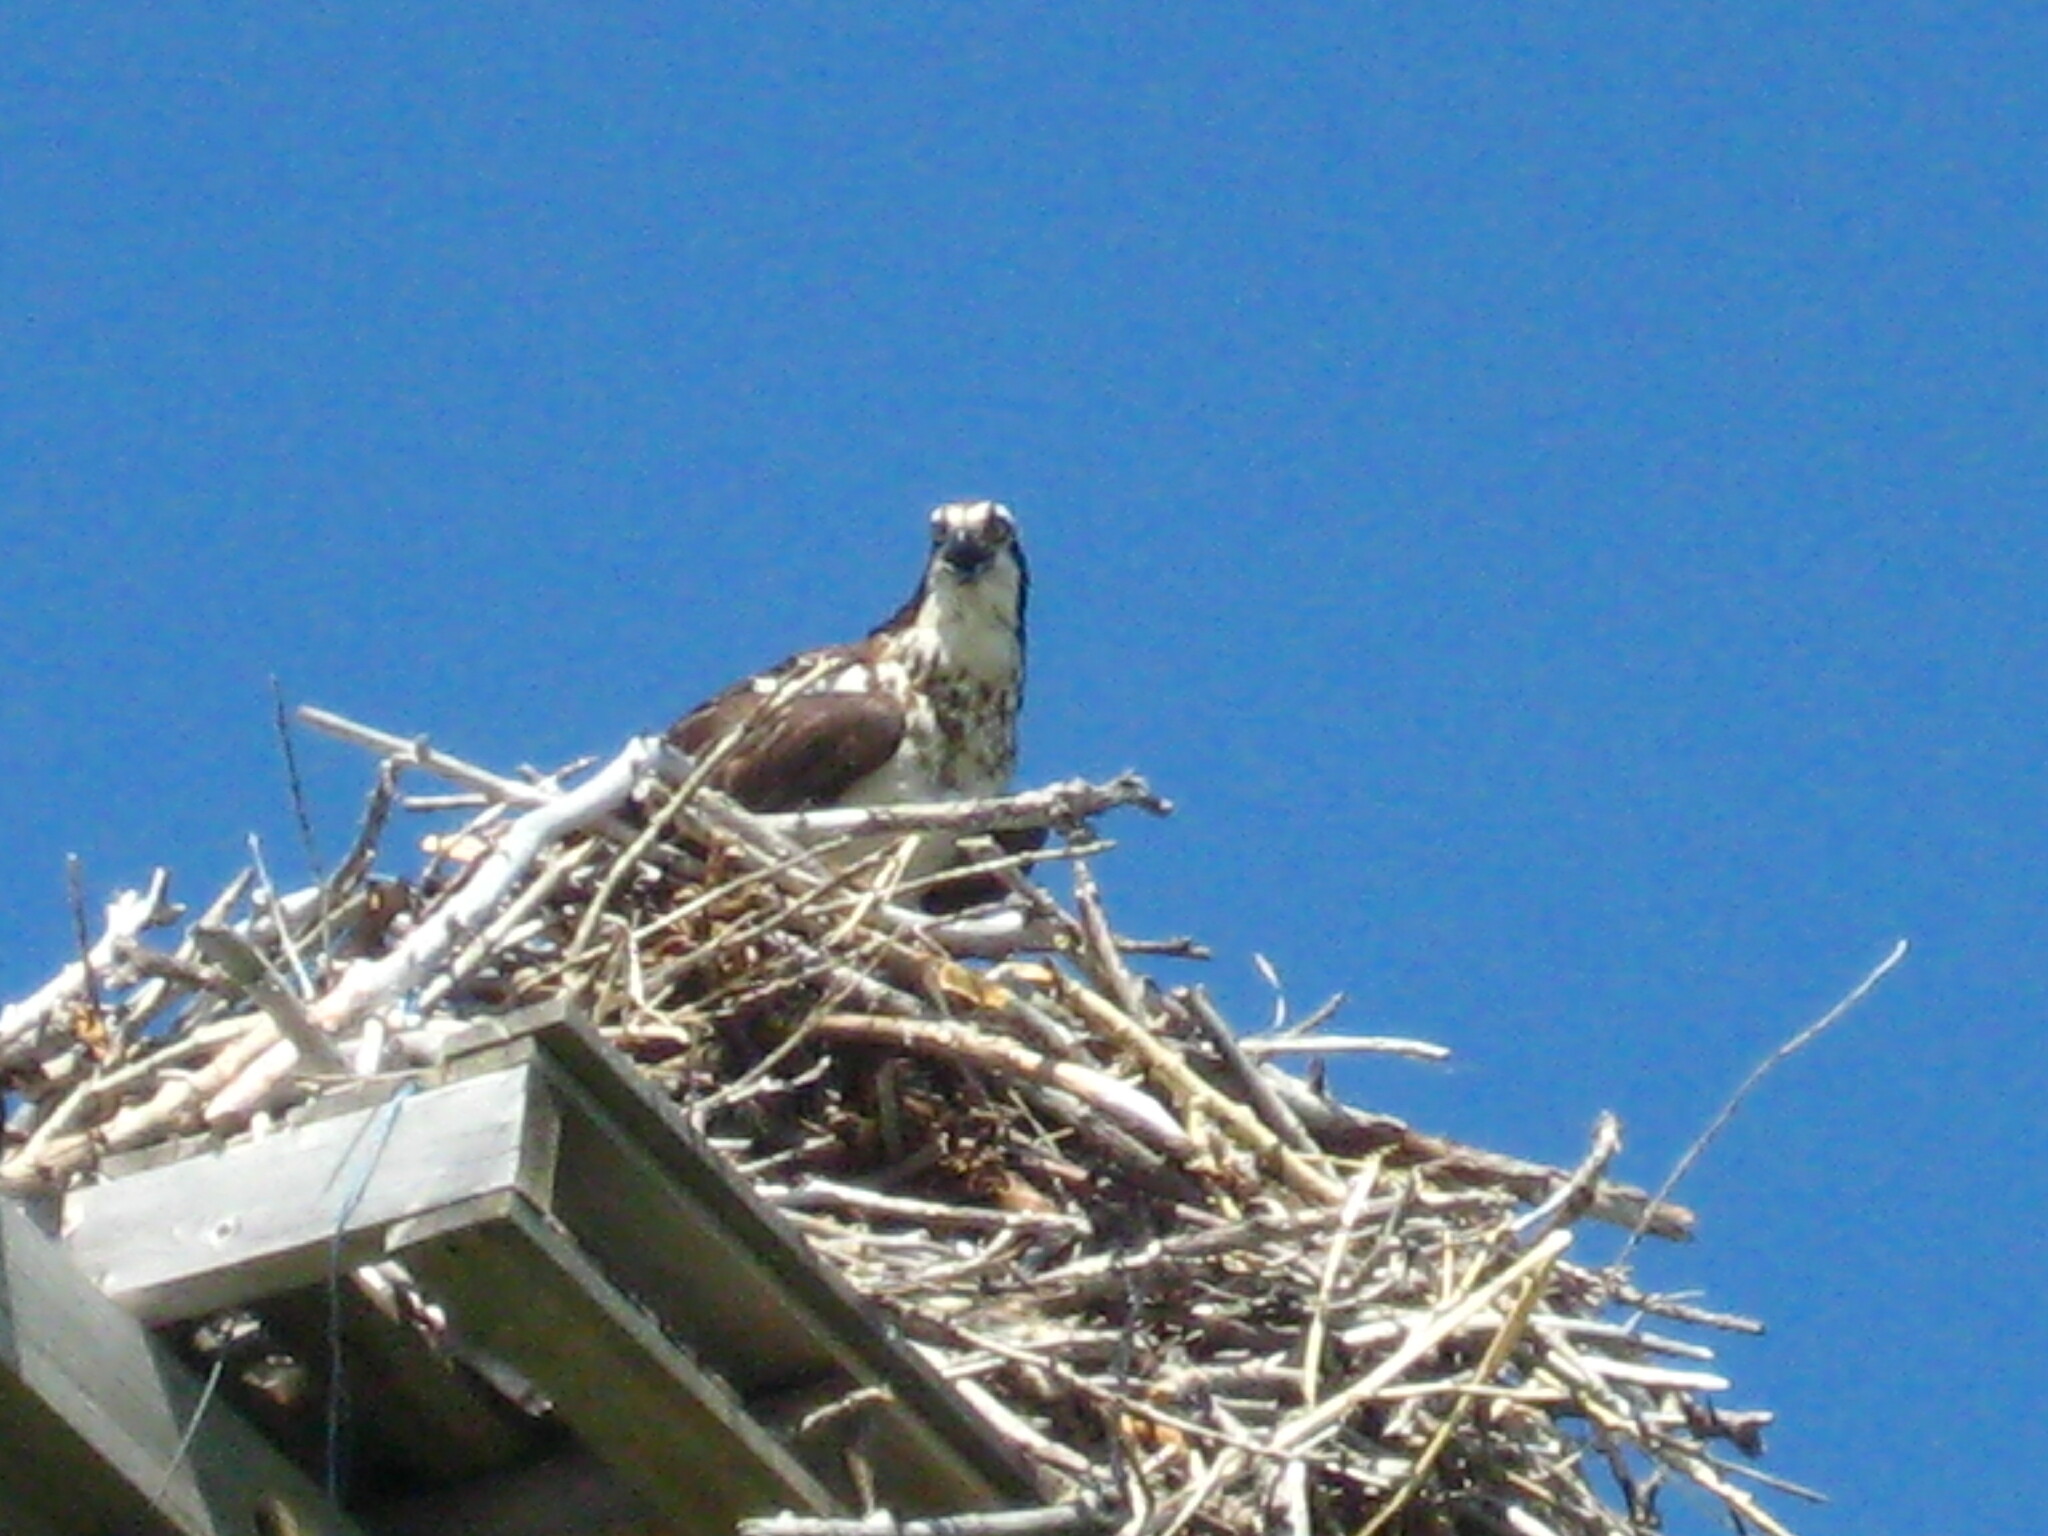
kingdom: Animalia
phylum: Chordata
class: Aves
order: Accipitriformes
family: Pandionidae
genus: Pandion
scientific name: Pandion haliaetus
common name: Osprey
